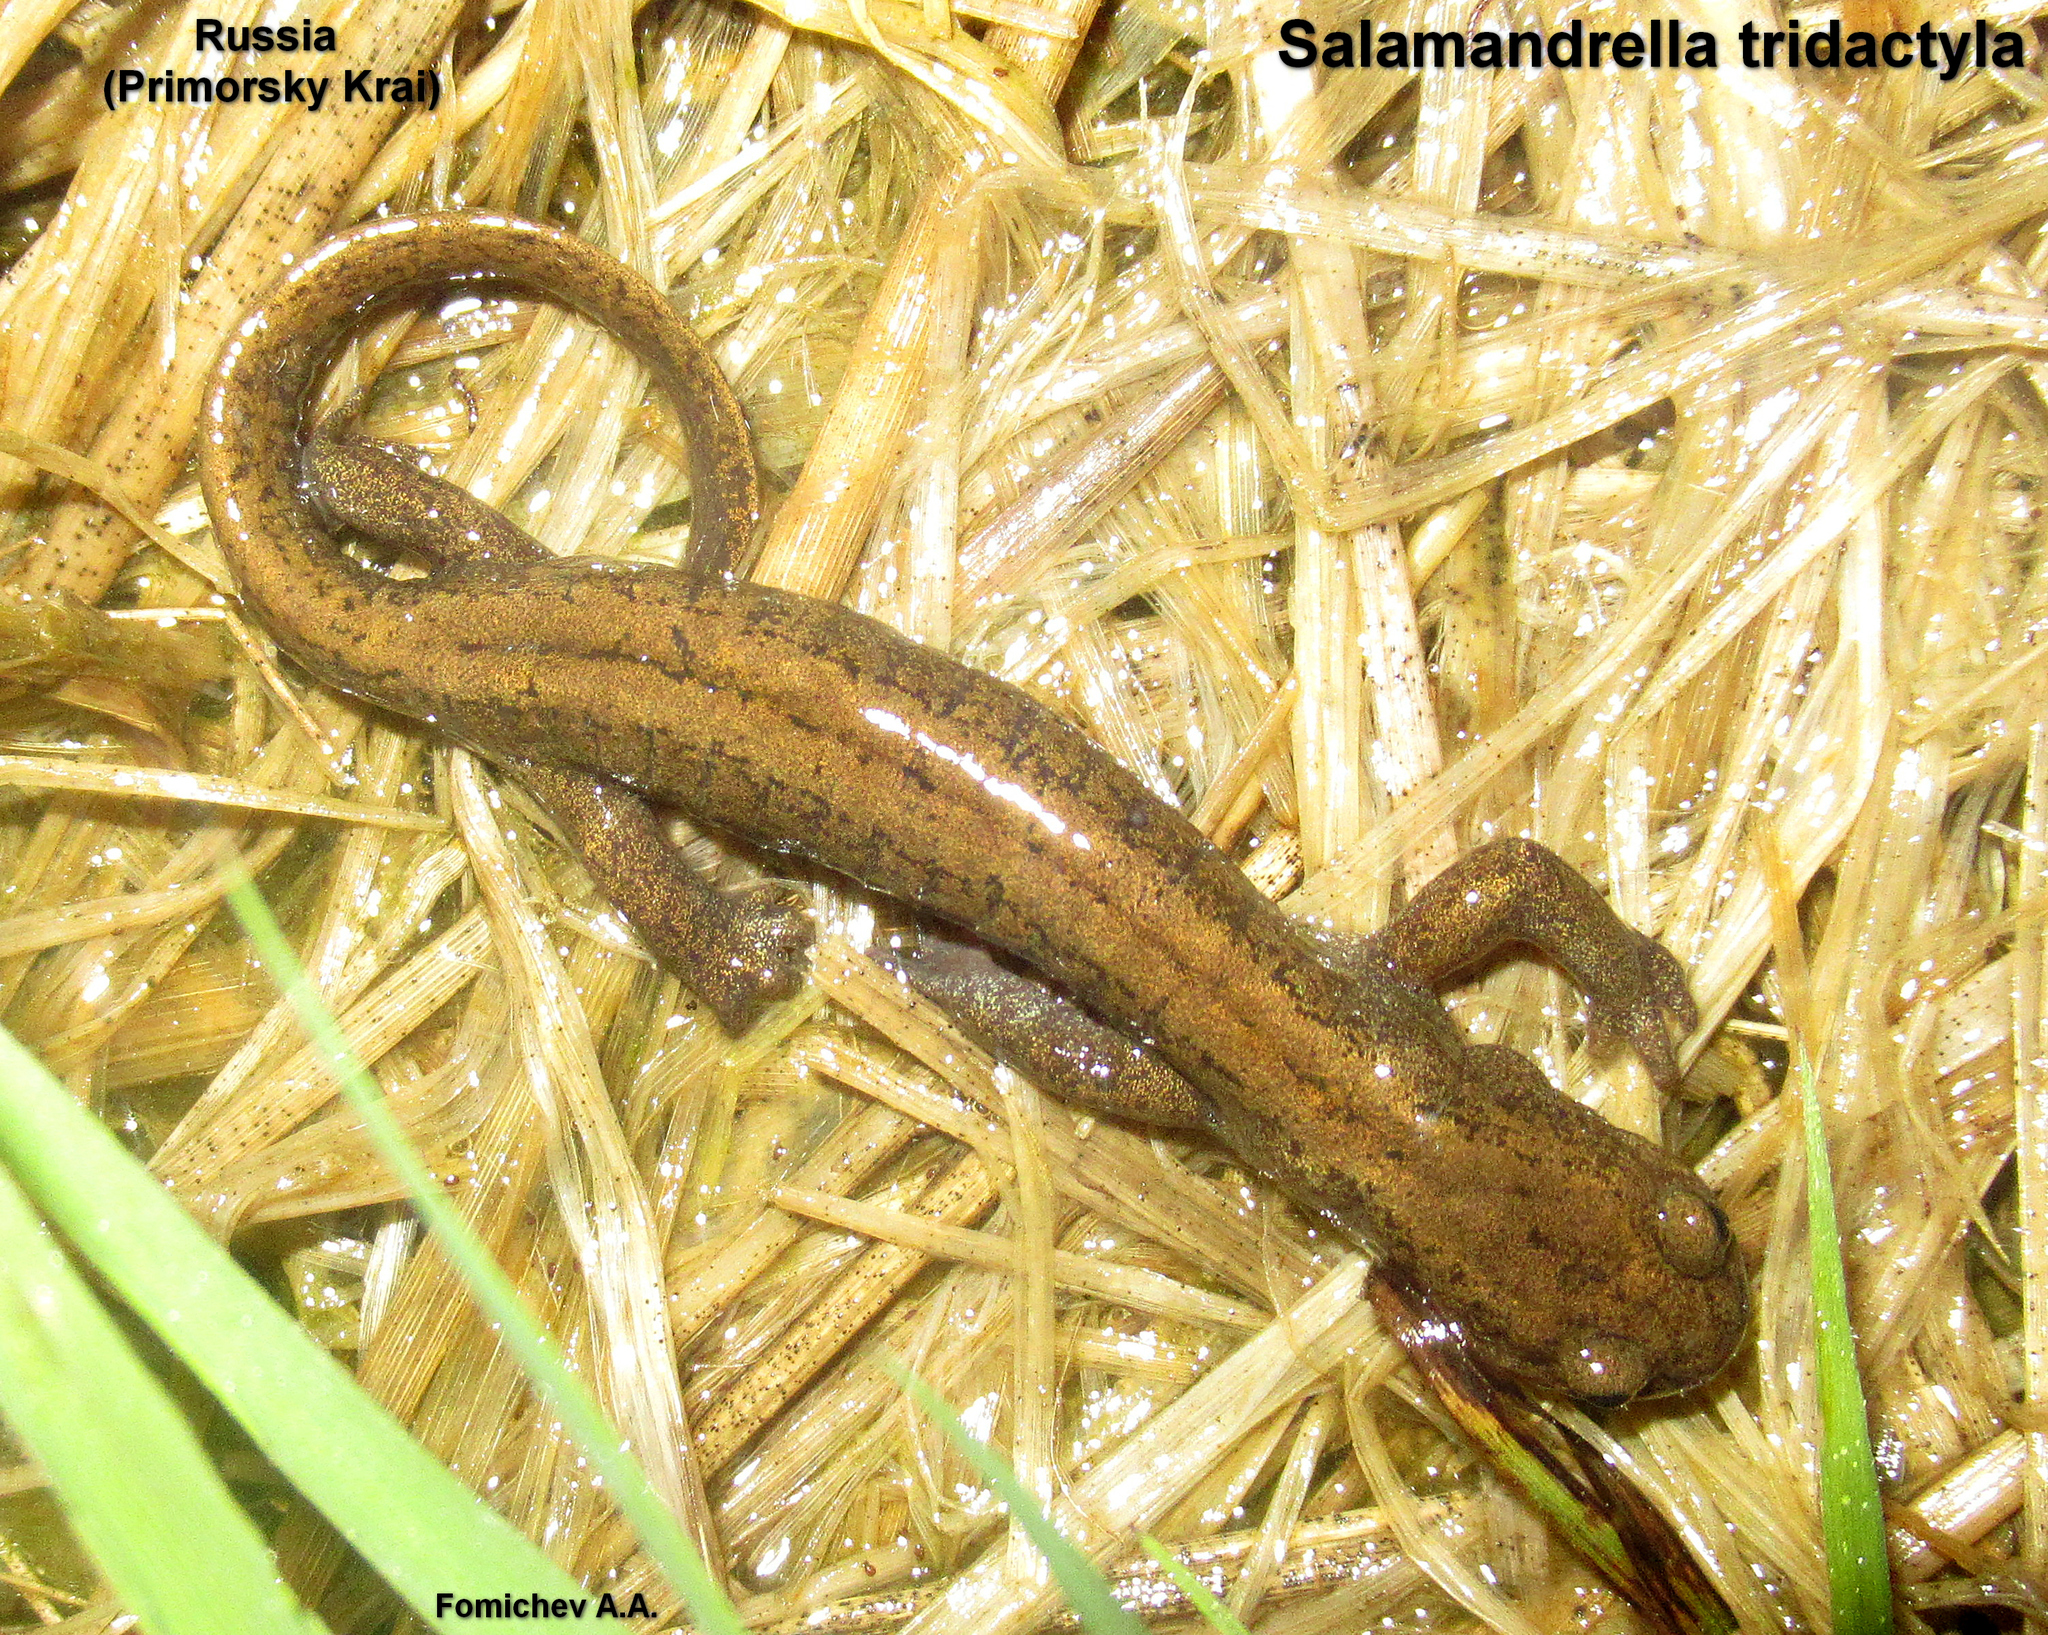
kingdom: Animalia
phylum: Chordata
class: Amphibia
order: Caudata
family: Hynobiidae
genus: Salamandrella
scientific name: Salamandrella tridactyla
